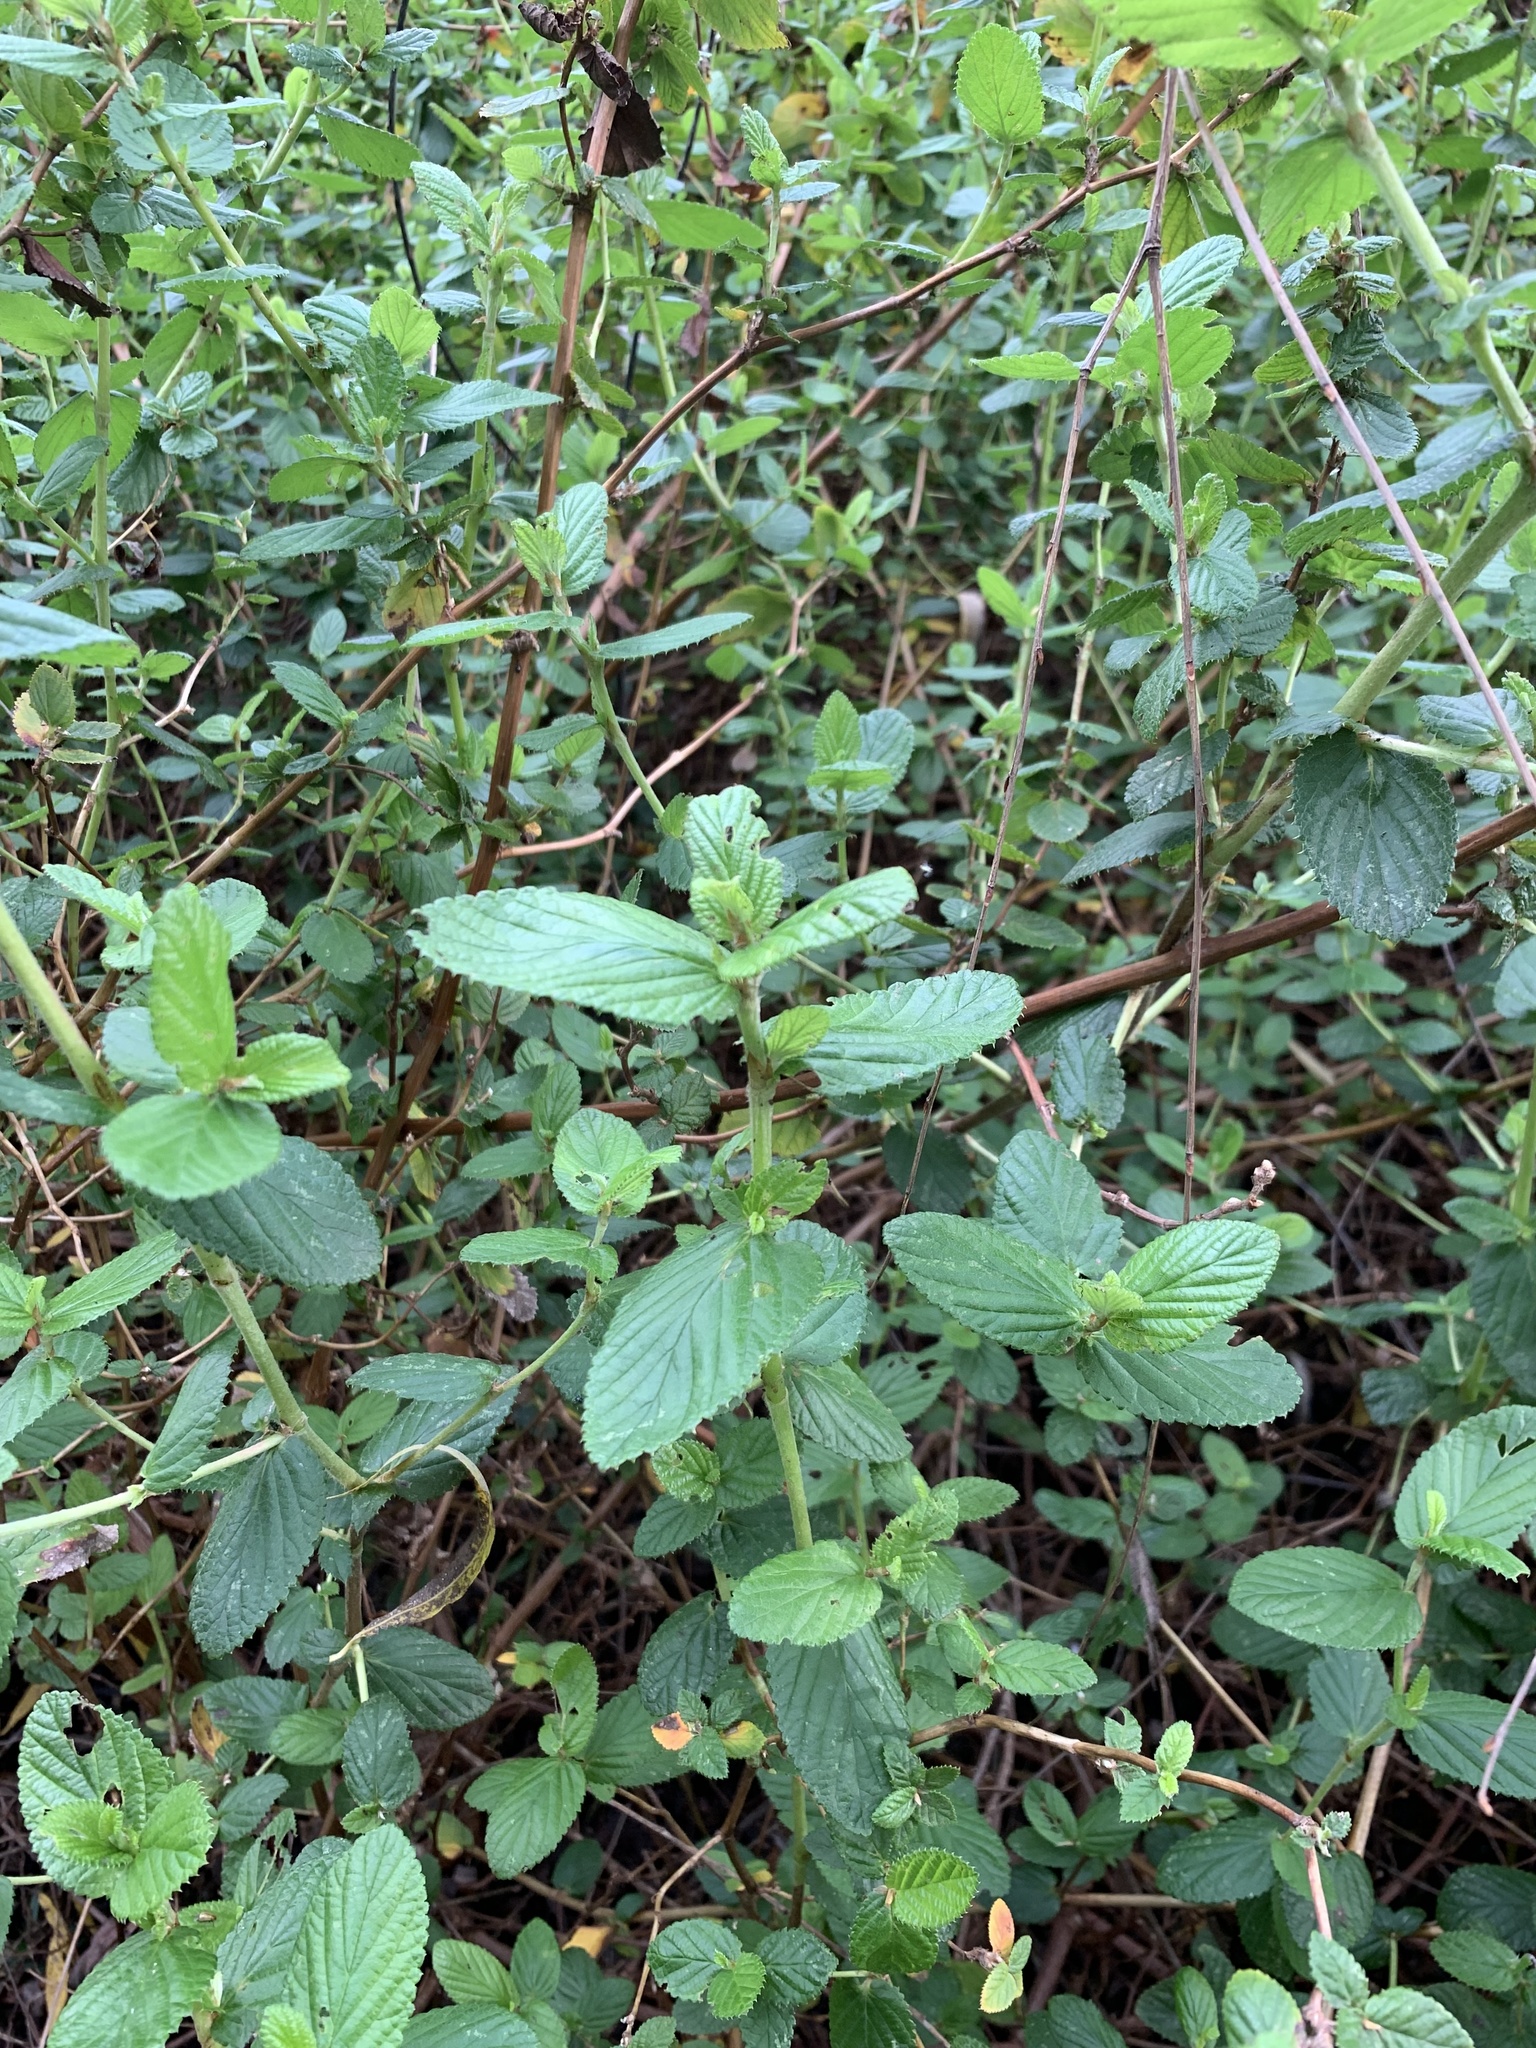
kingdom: Plantae
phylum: Tracheophyta
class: Magnoliopsida
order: Rosales
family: Rosaceae
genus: Cliffortia
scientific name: Cliffortia odorata
